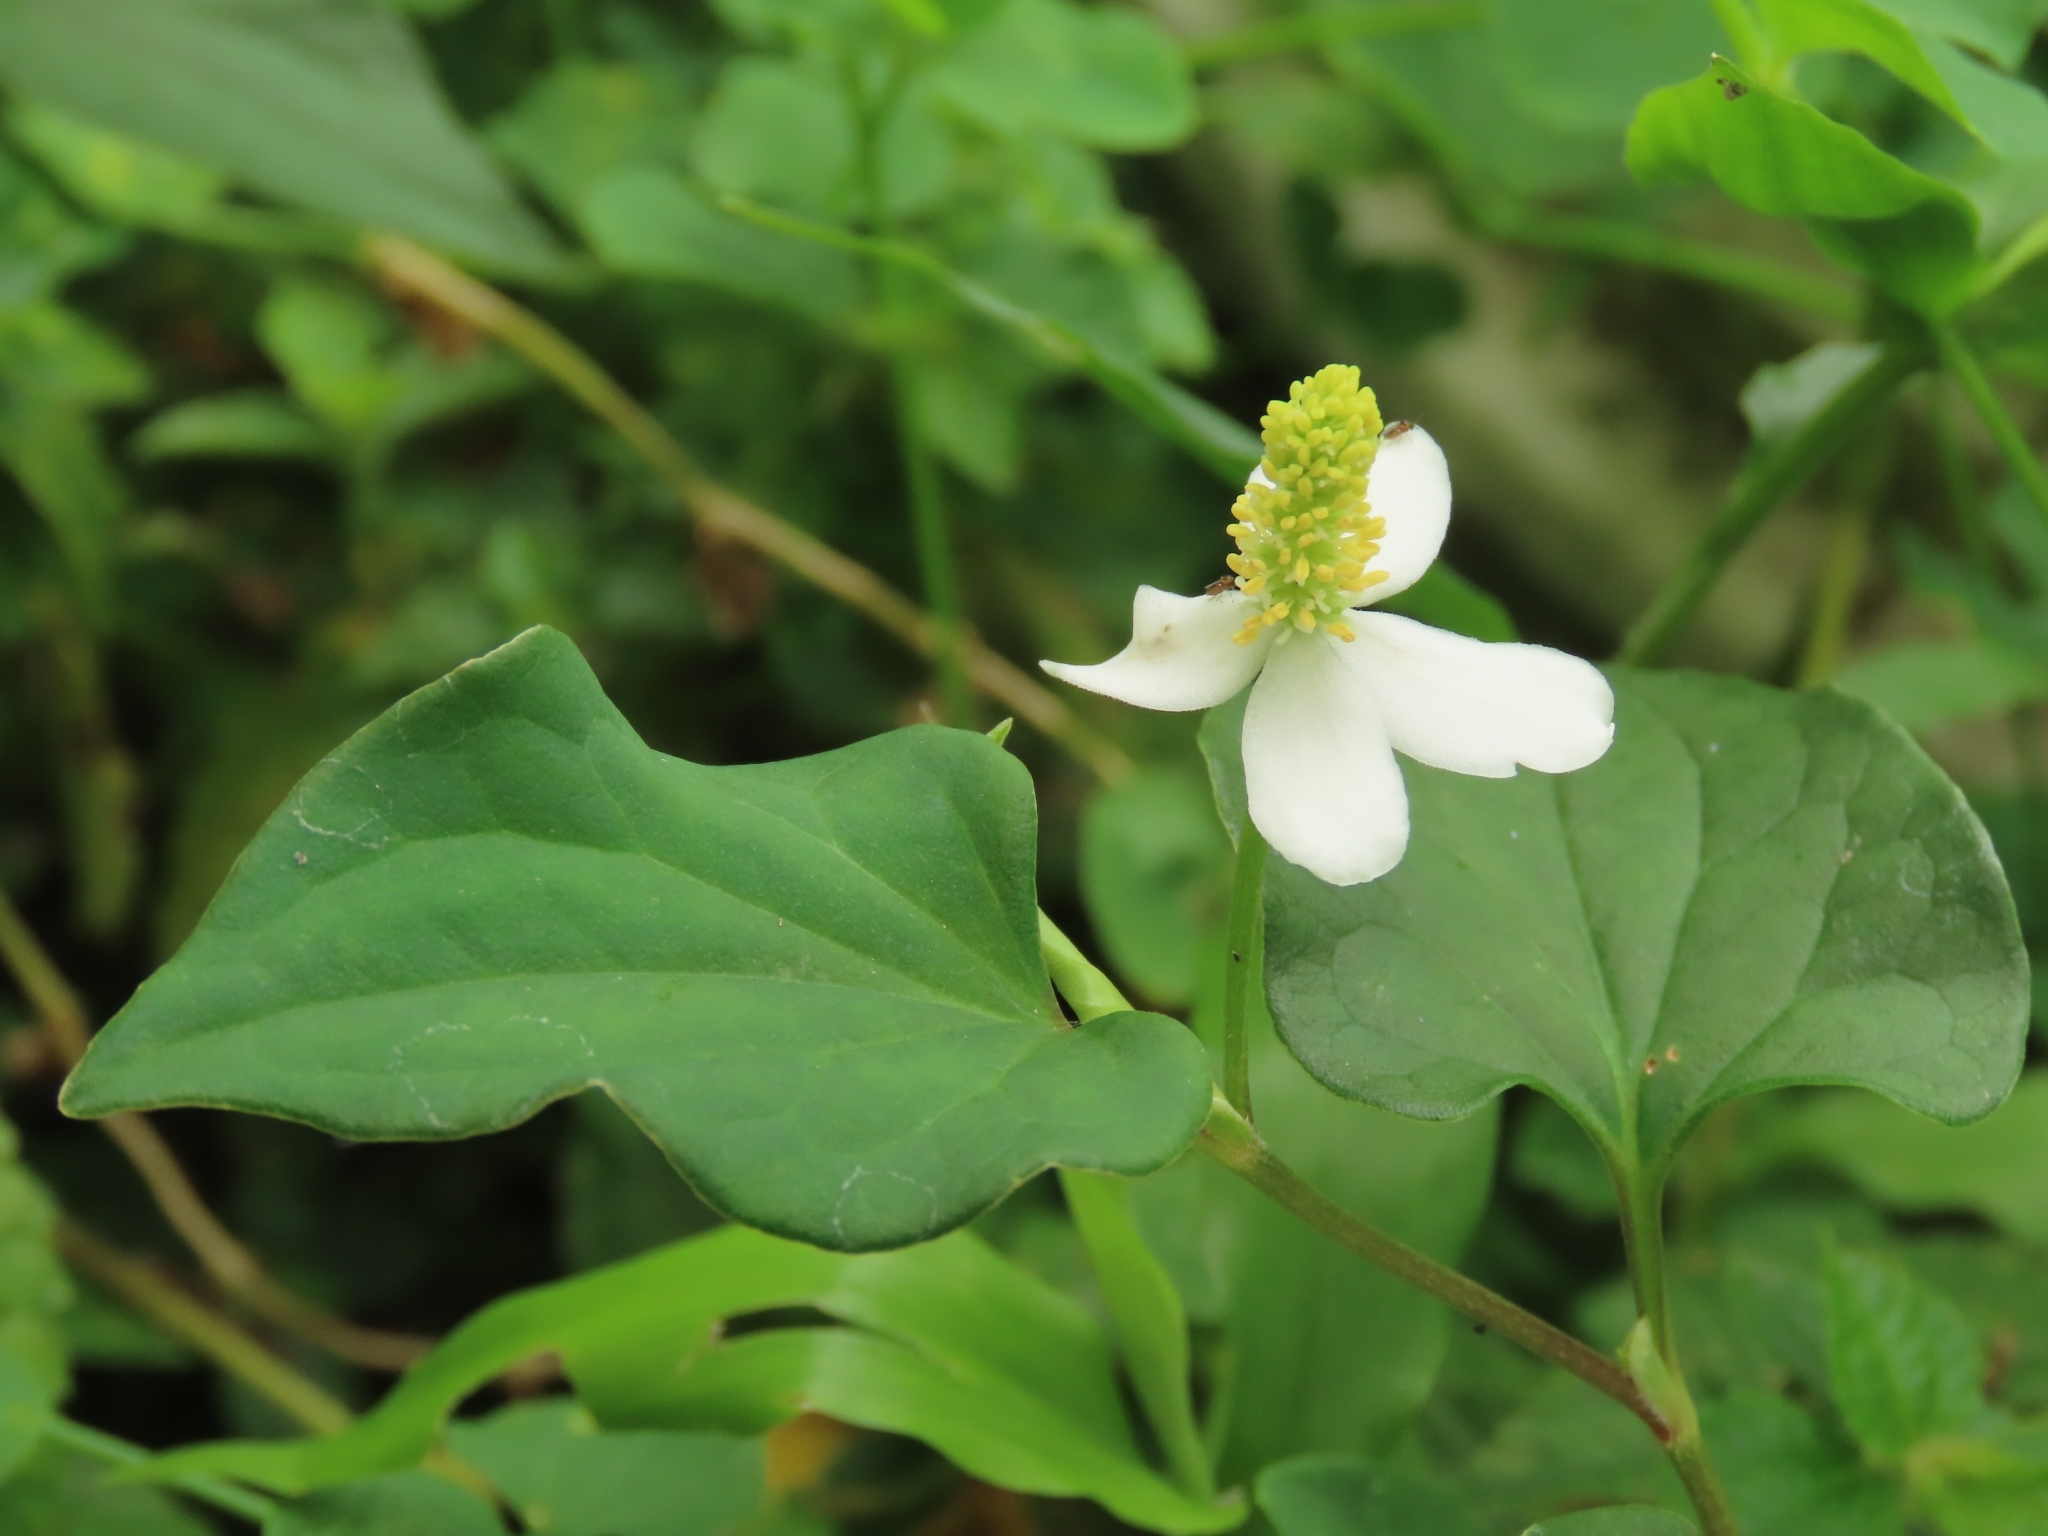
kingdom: Plantae
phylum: Tracheophyta
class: Magnoliopsida
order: Piperales
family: Saururaceae
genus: Houttuynia
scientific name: Houttuynia cordata
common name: Chameleon
